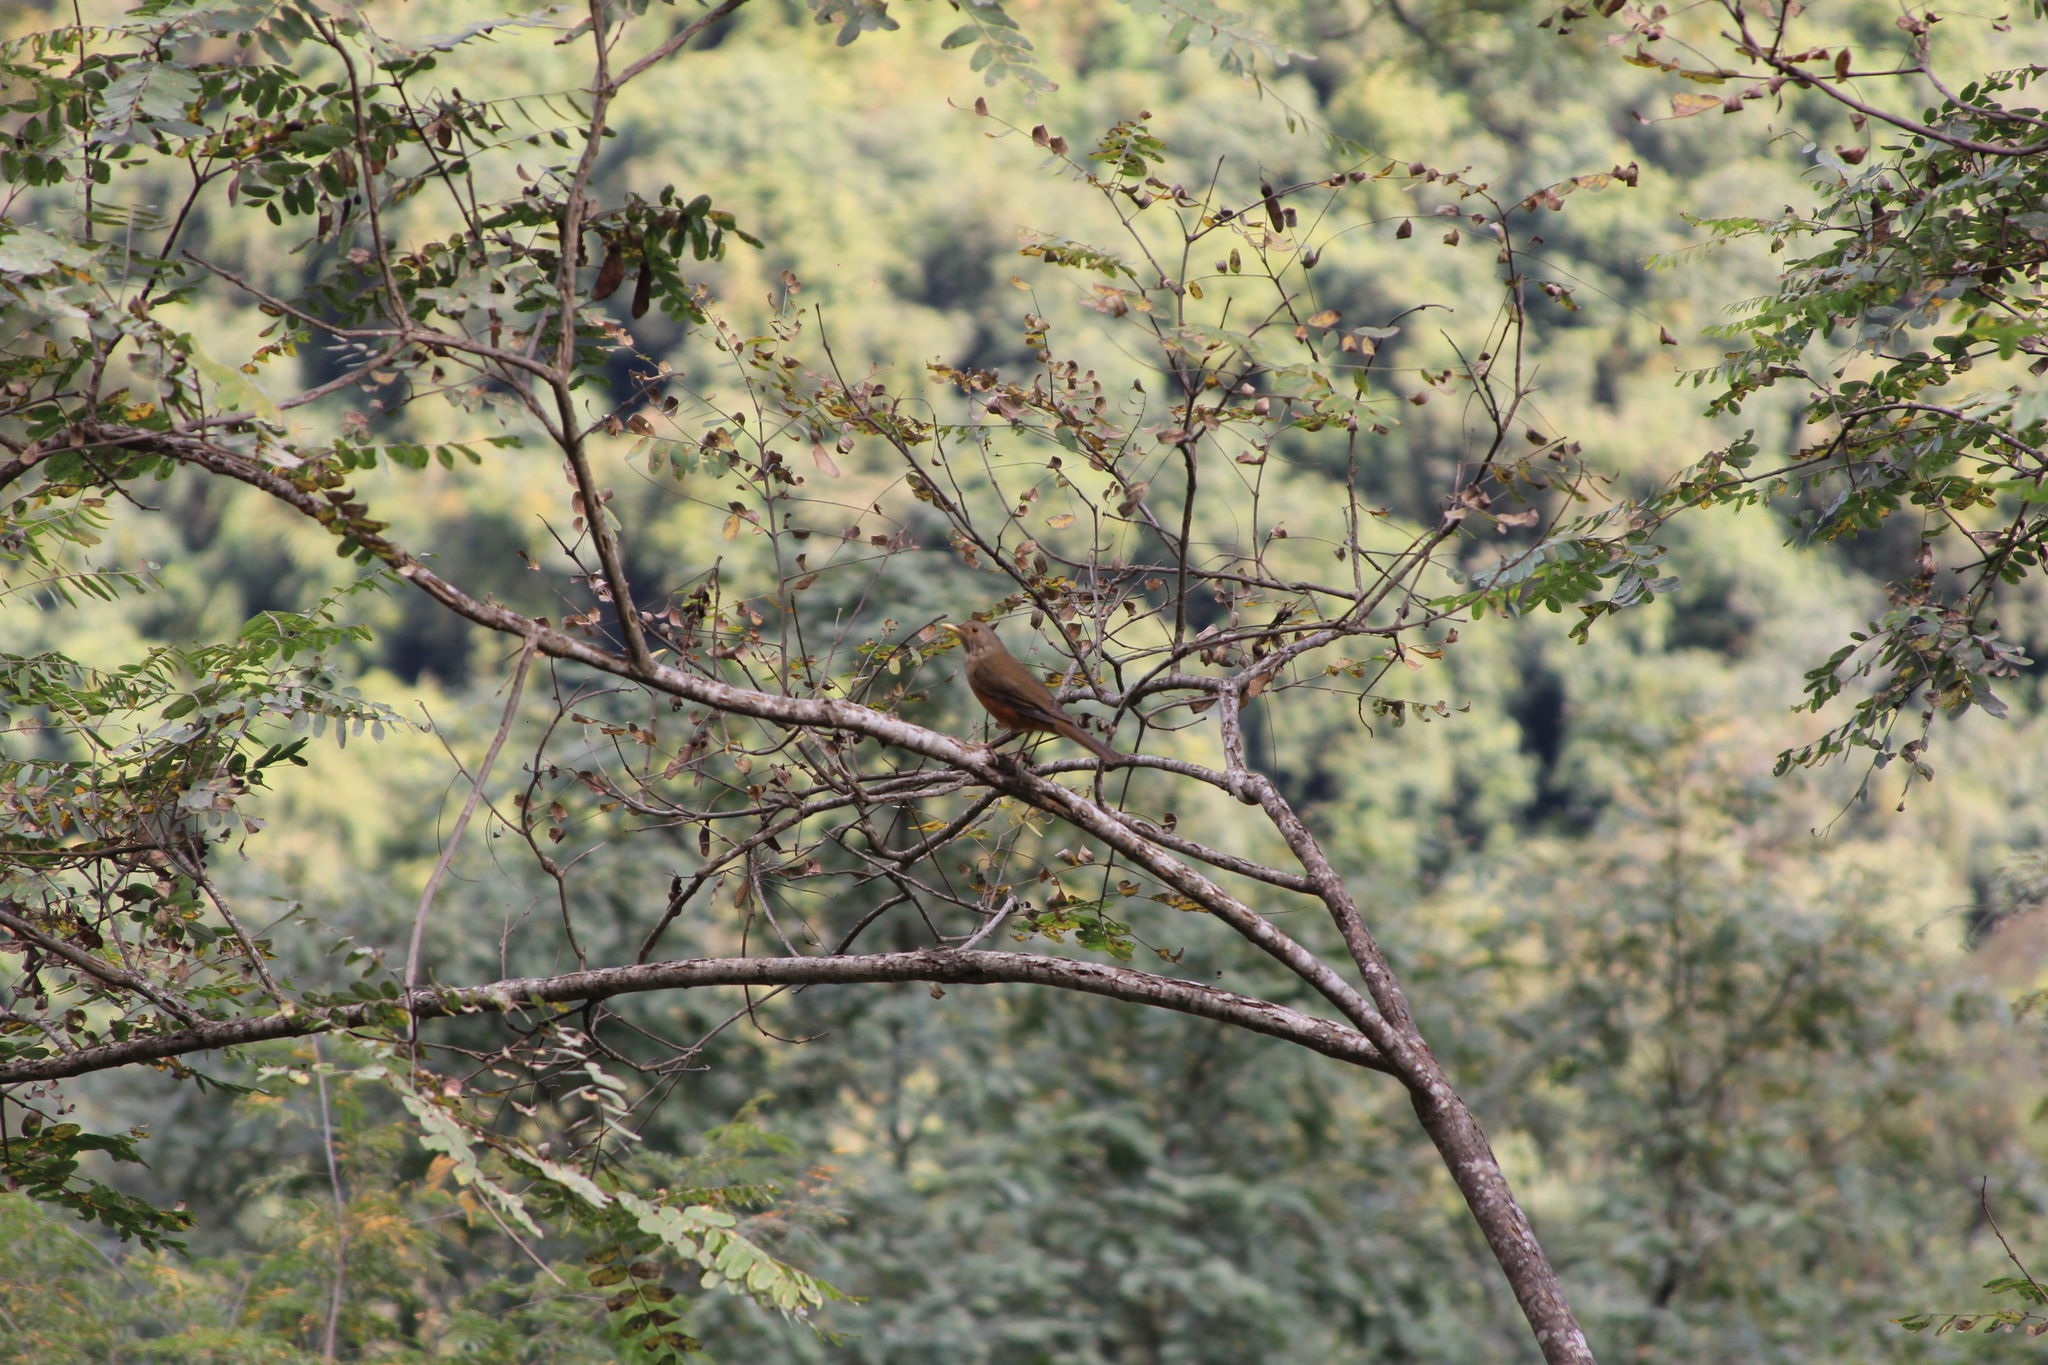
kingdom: Animalia
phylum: Chordata
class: Aves
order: Passeriformes
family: Turdidae
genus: Turdus
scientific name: Turdus rufiventris
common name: Rufous-bellied thrush
